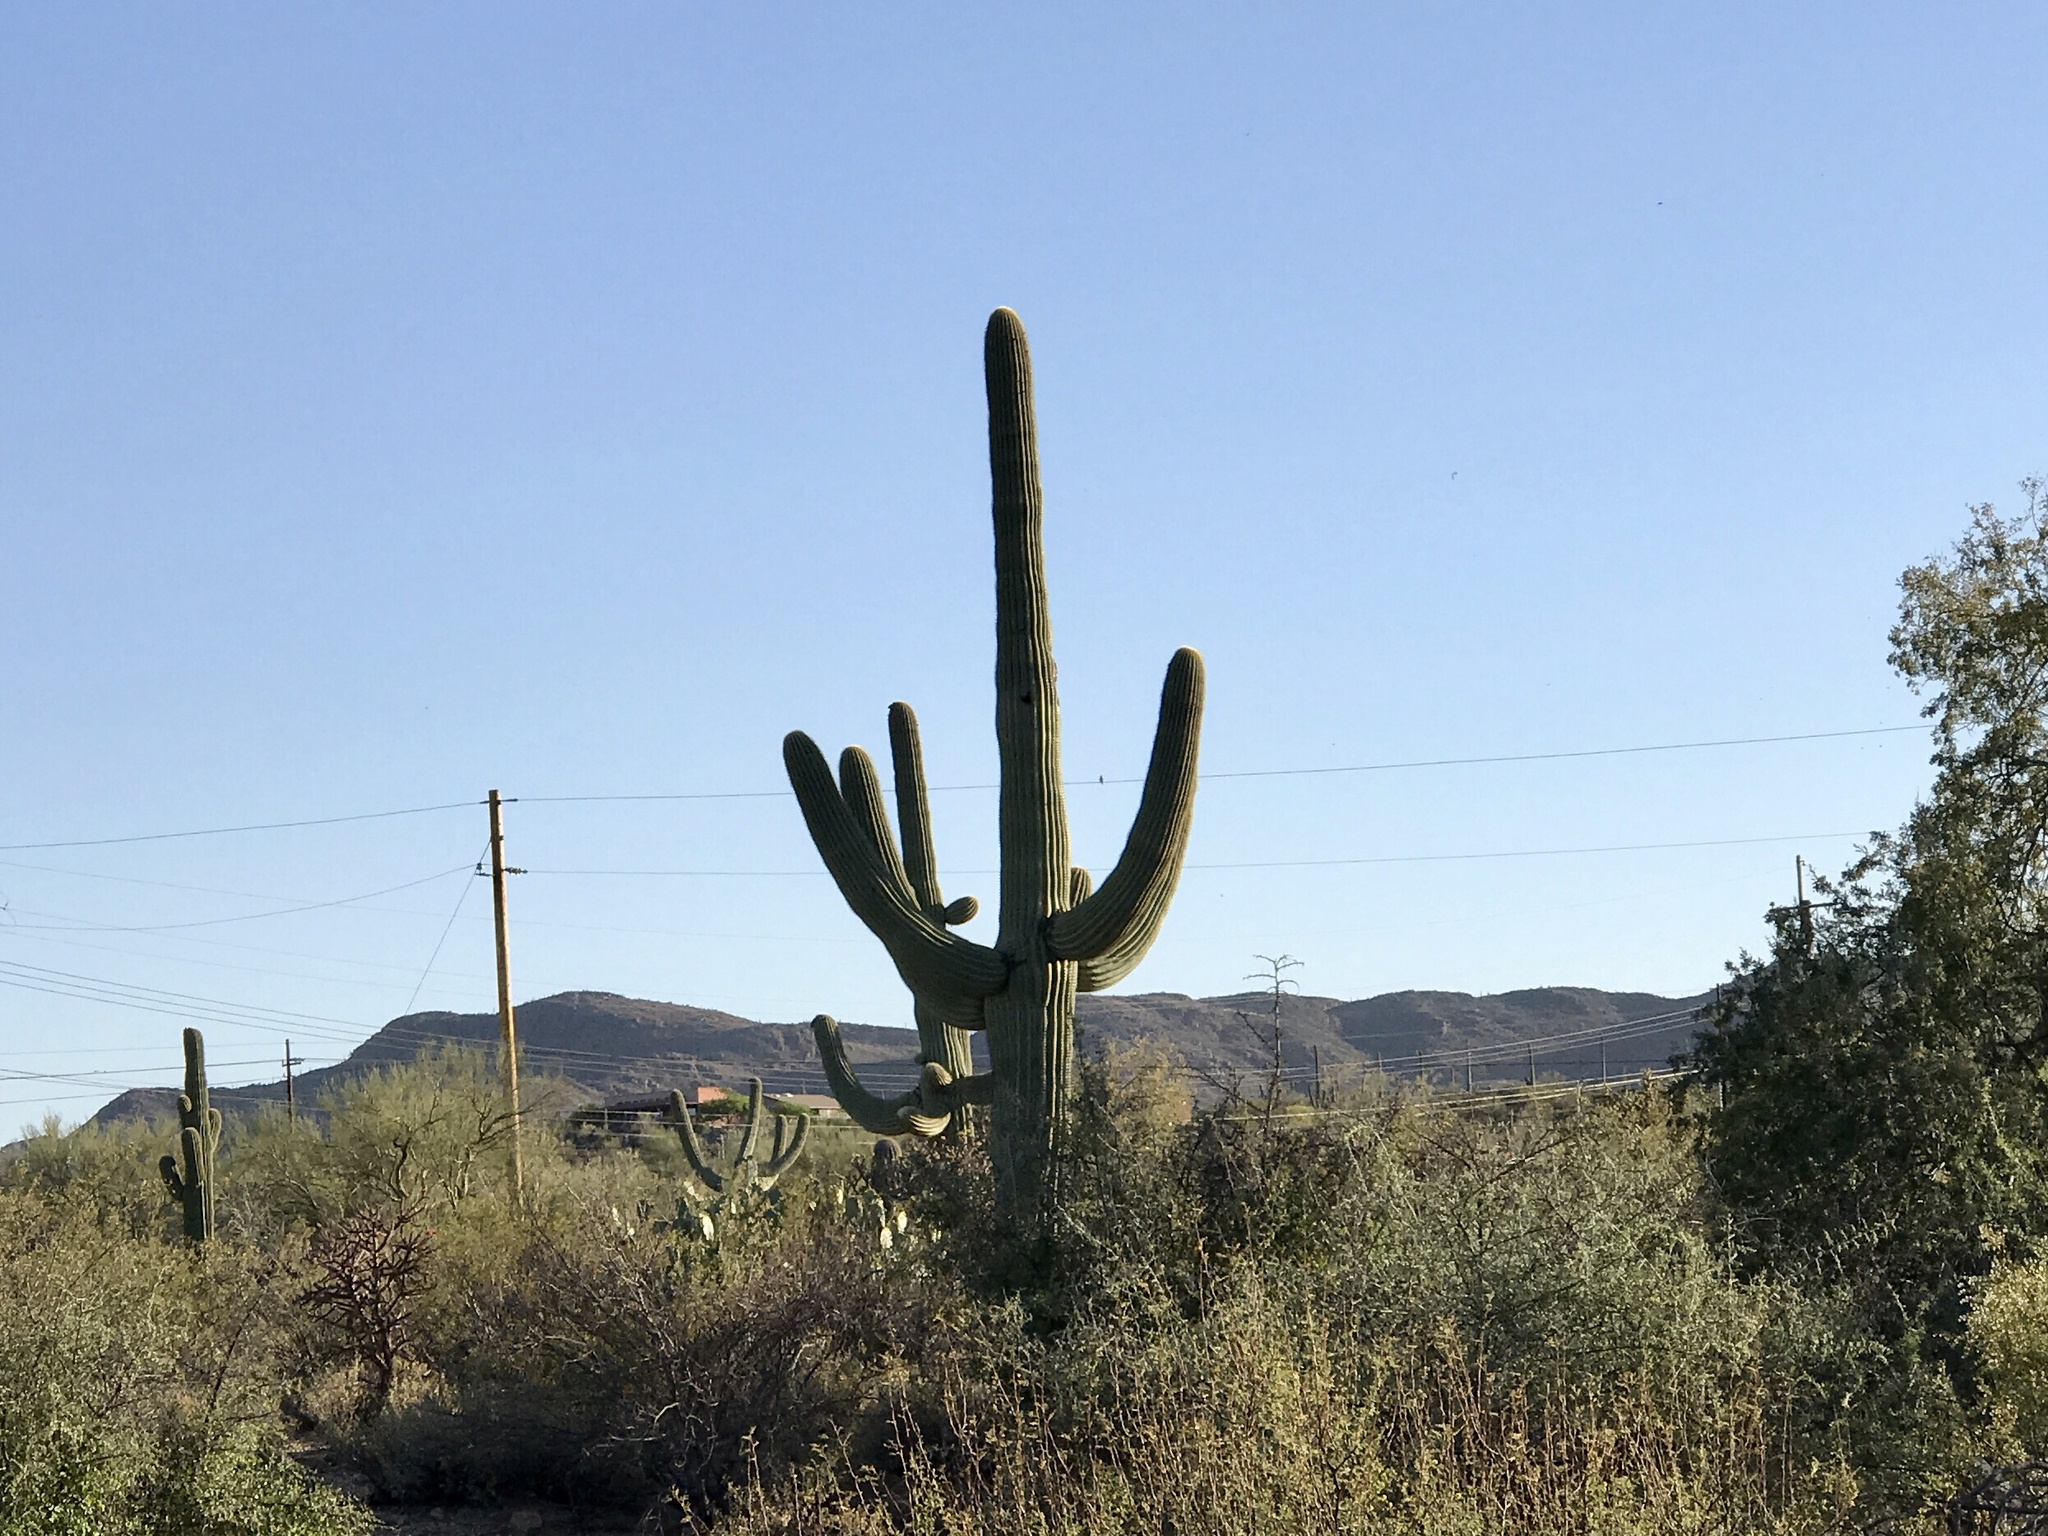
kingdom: Plantae
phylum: Tracheophyta
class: Magnoliopsida
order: Caryophyllales
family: Cactaceae
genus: Carnegiea
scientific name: Carnegiea gigantea
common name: Saguaro
